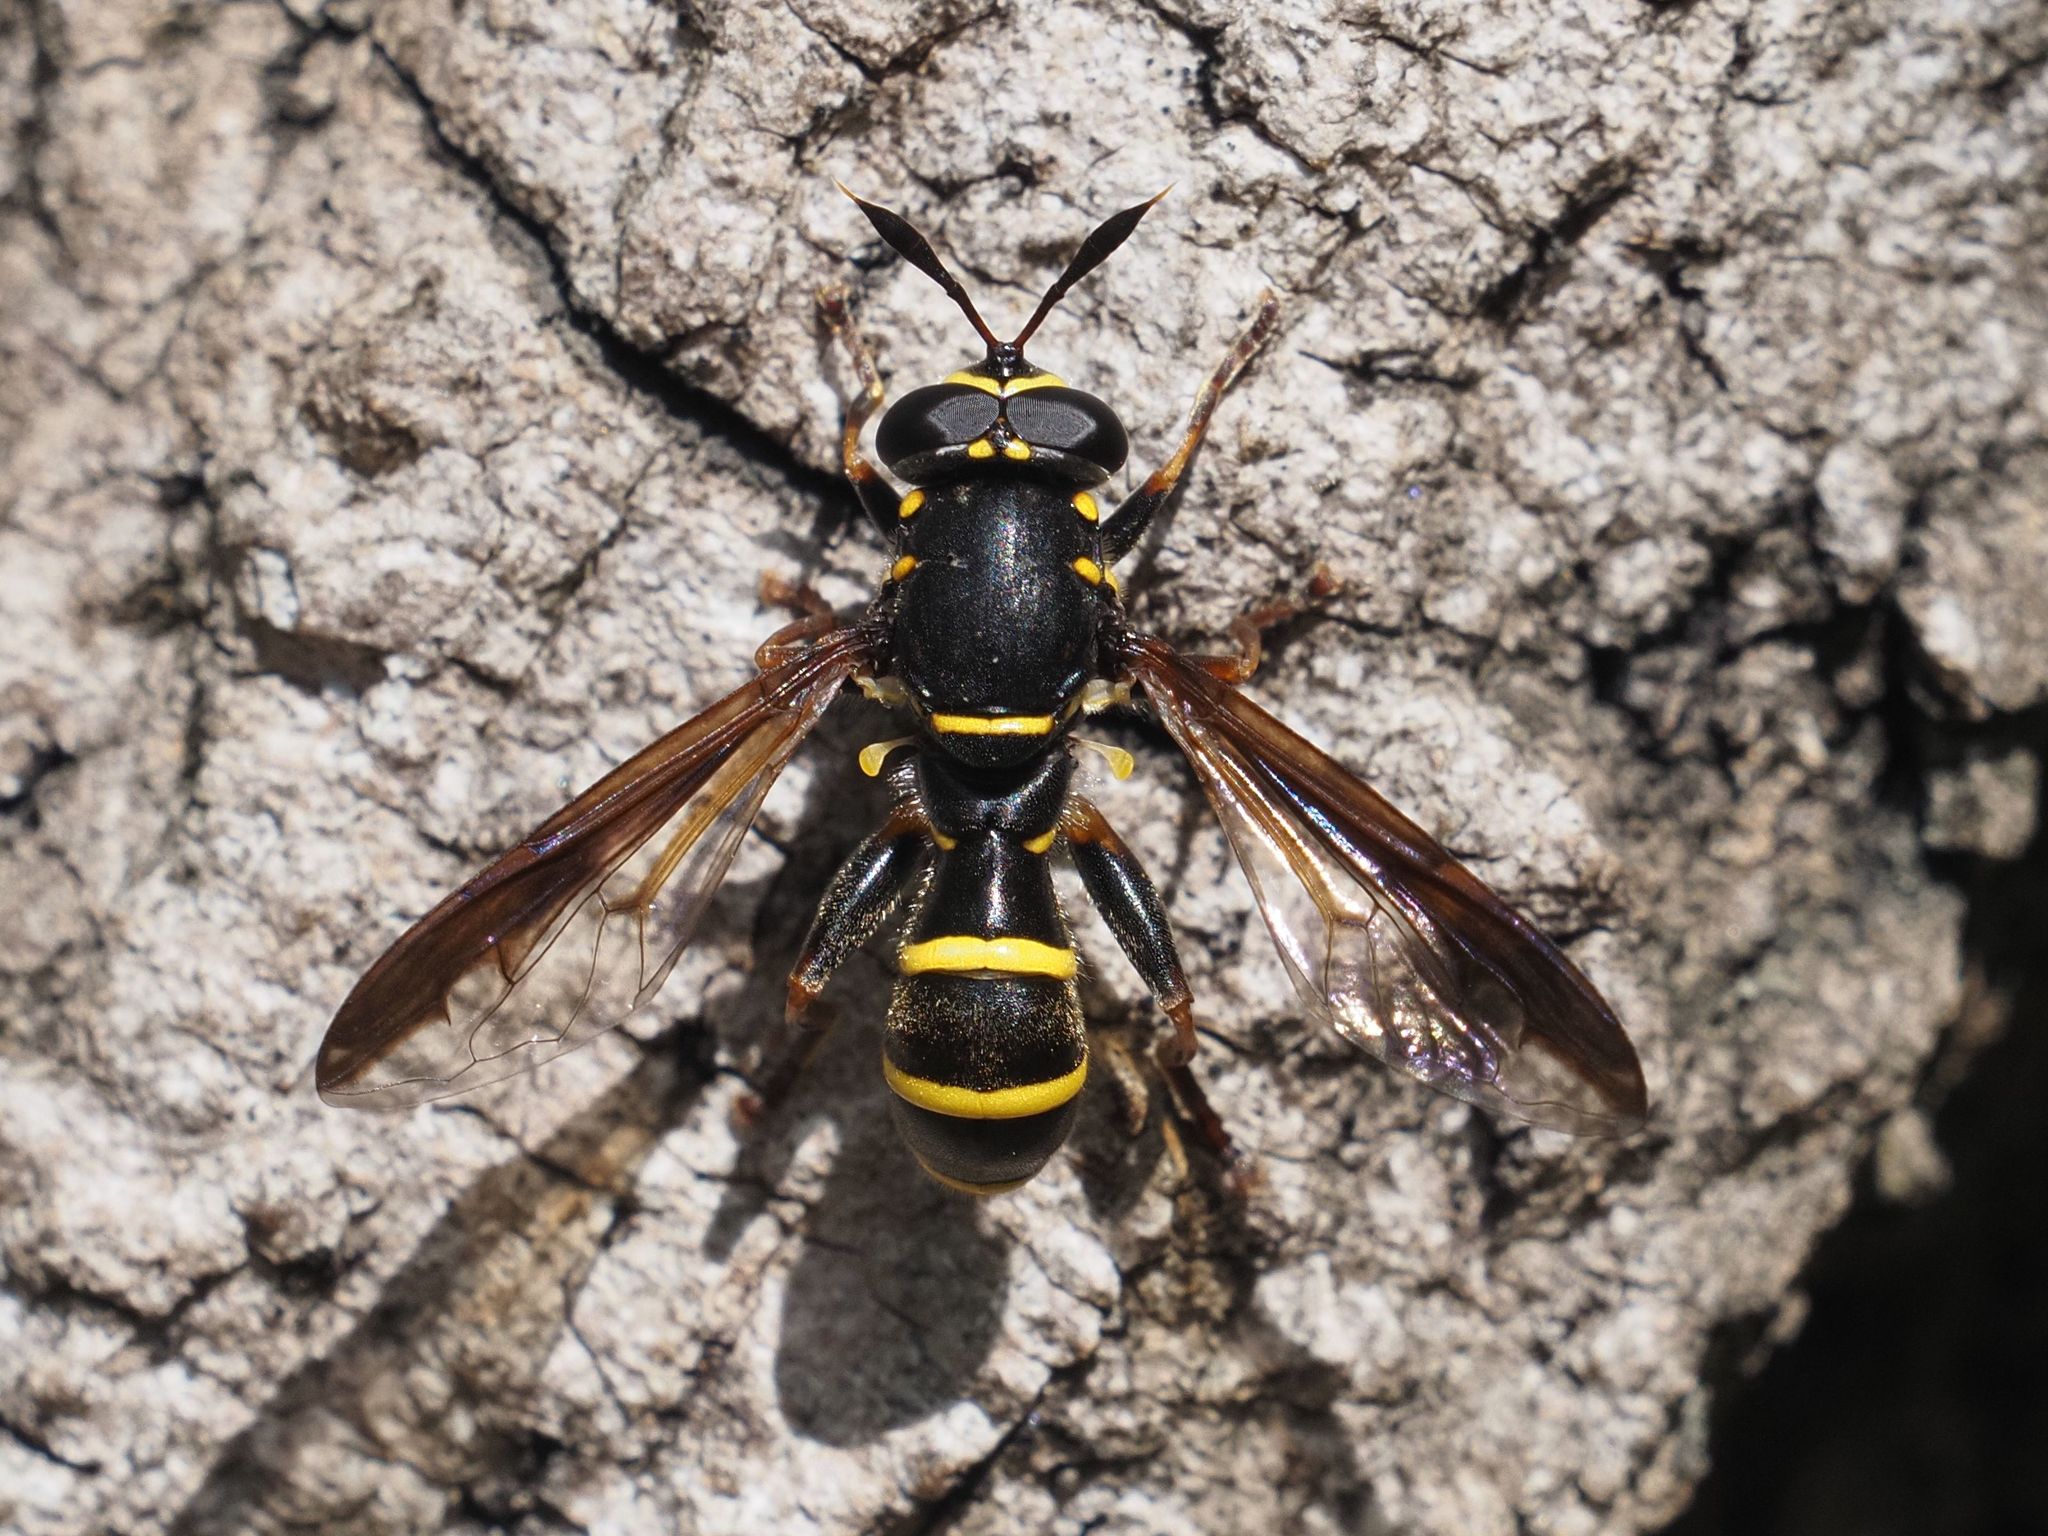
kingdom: Animalia
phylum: Arthropoda
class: Insecta
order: Diptera
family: Syrphidae
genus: Sphiximorpha
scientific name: Sphiximorpha subsessilis
